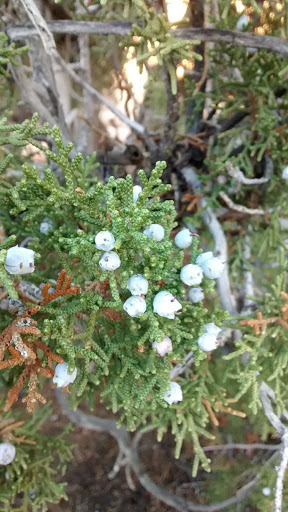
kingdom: Plantae
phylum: Tracheophyta
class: Pinopsida
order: Pinales
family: Cupressaceae
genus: Juniperus
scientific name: Juniperus californica
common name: California juniper
